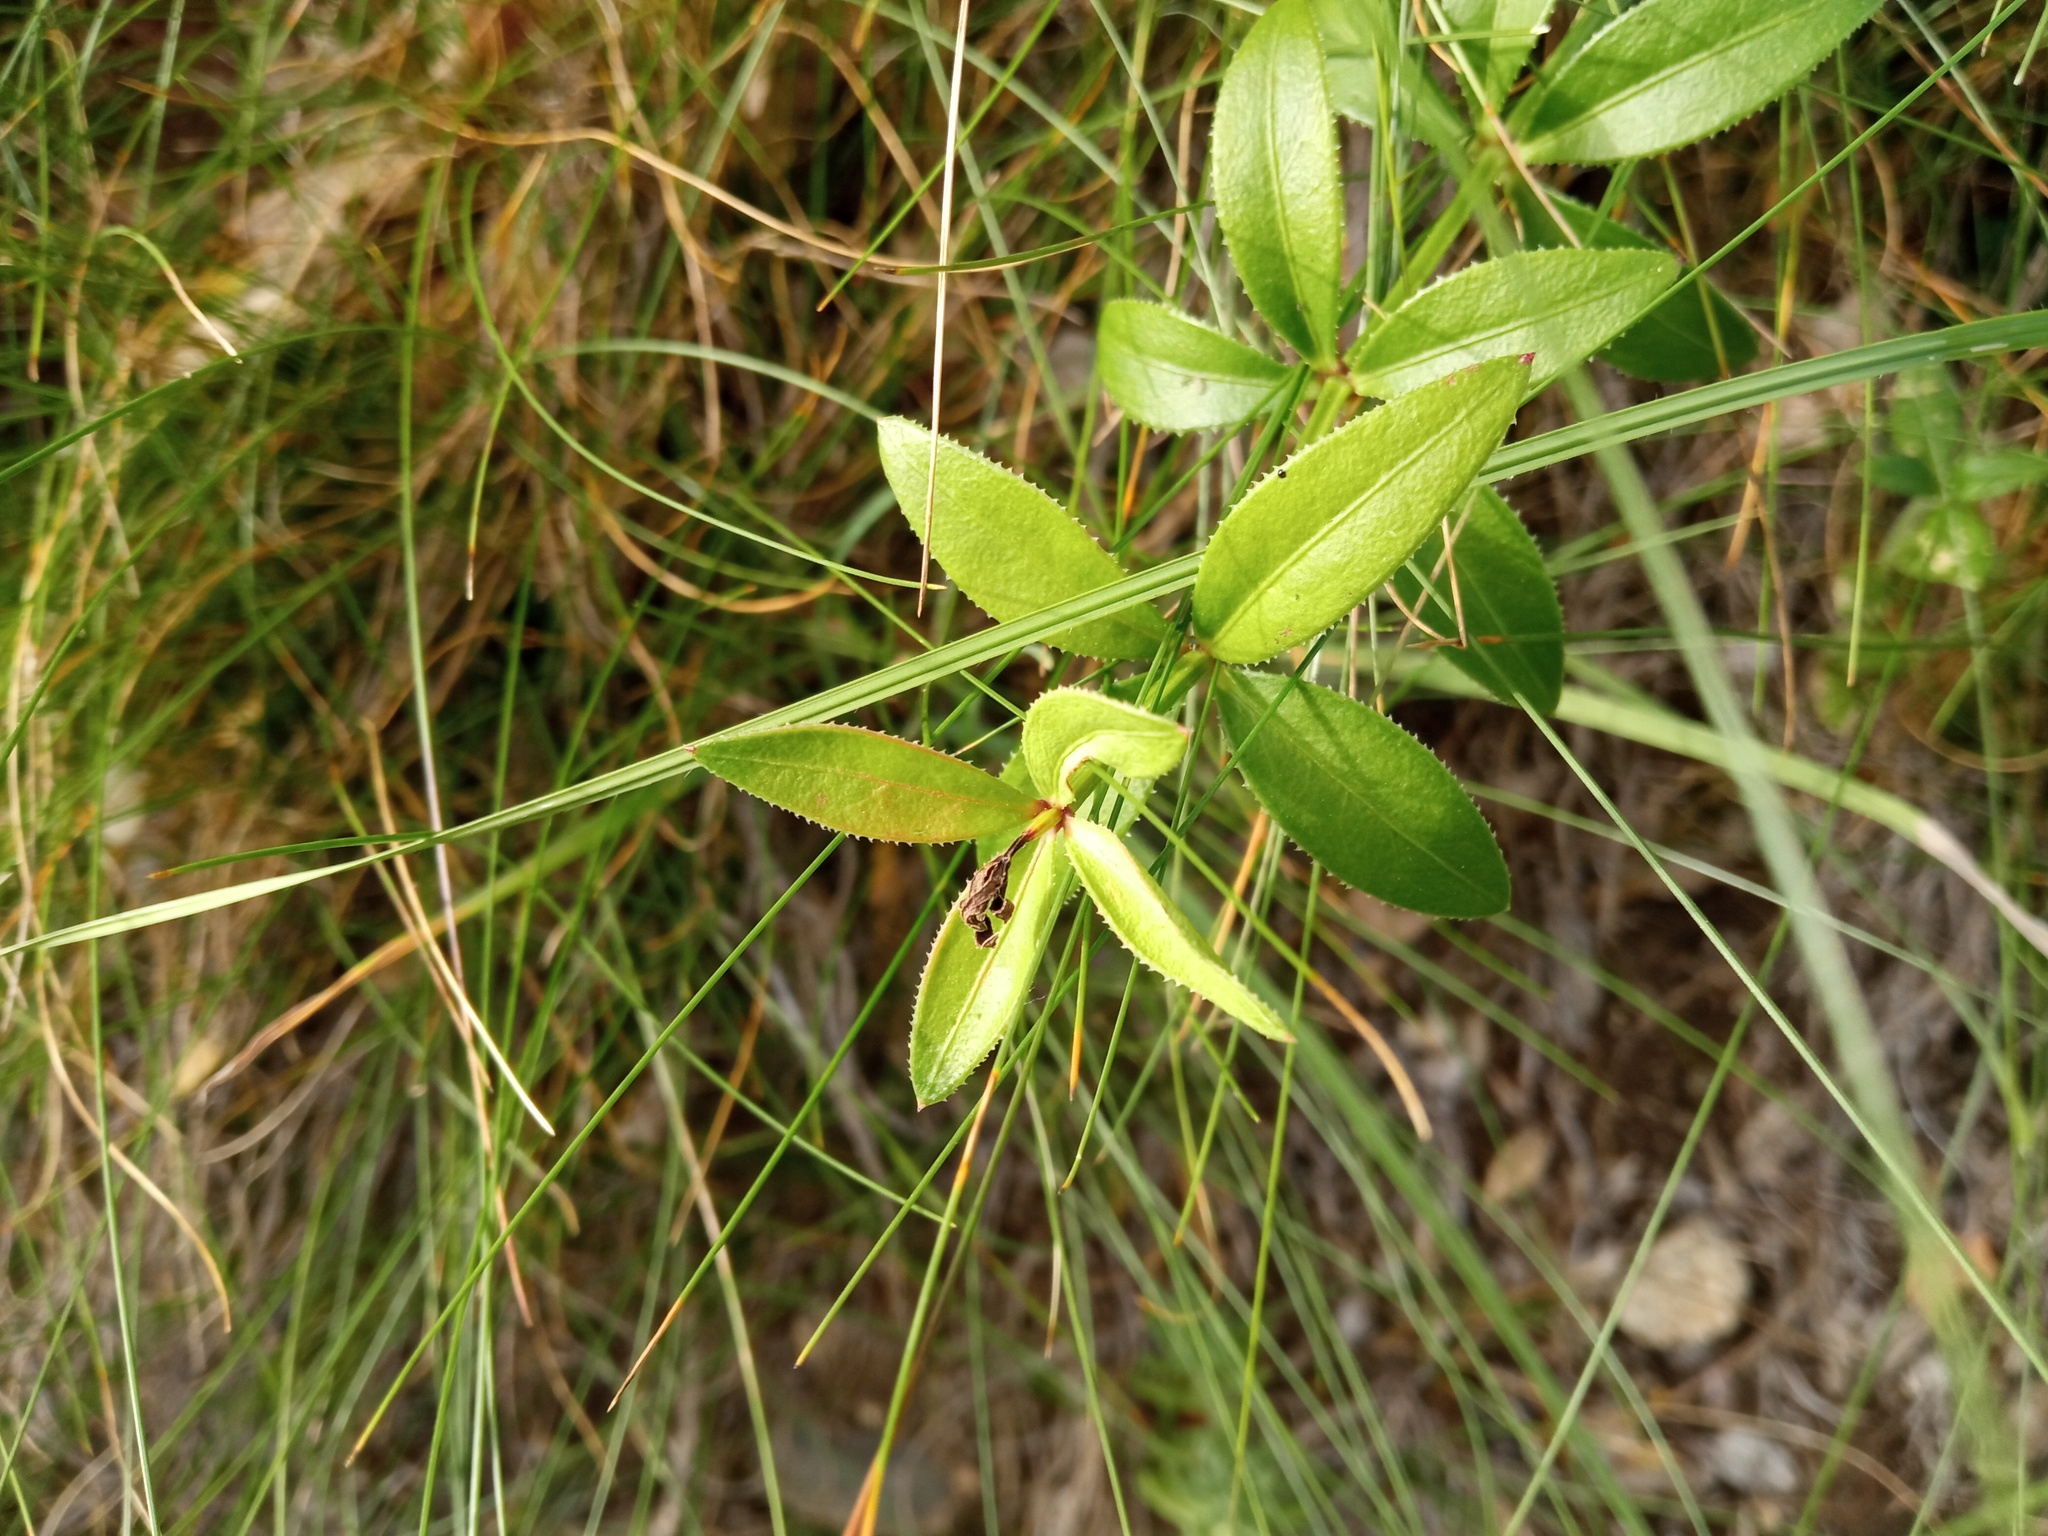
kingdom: Plantae
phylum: Tracheophyta
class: Magnoliopsida
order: Gentianales
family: Rubiaceae
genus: Rubia
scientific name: Rubia peregrina
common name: Wild madder
